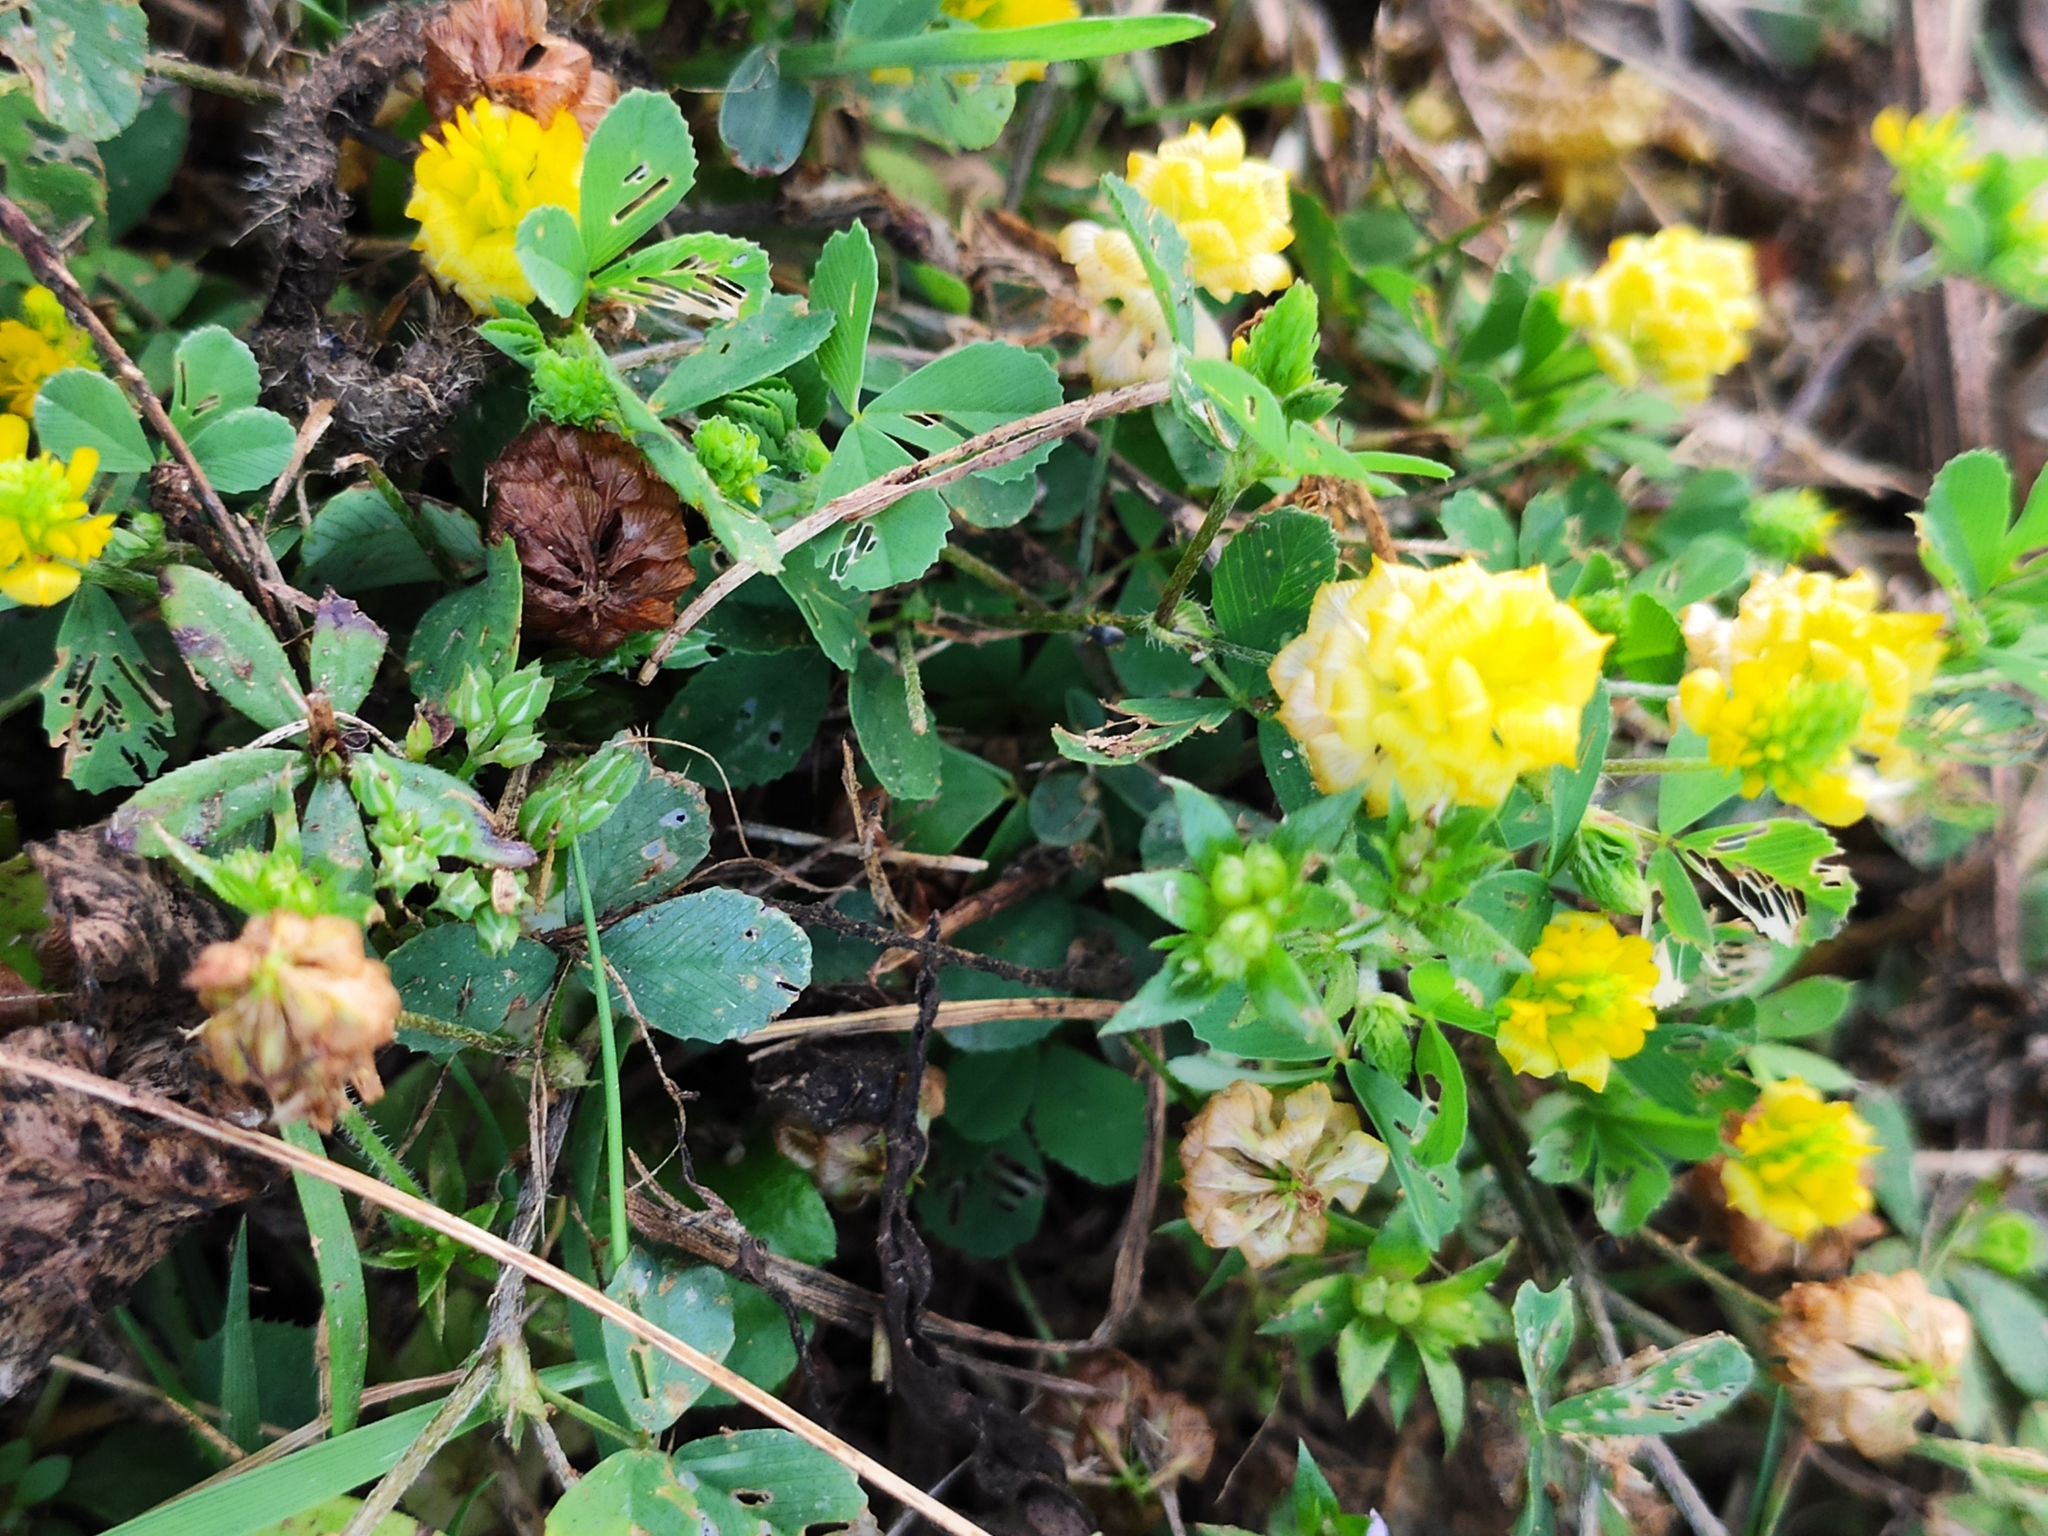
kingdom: Plantae
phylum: Tracheophyta
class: Magnoliopsida
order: Fabales
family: Fabaceae
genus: Trifolium
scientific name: Trifolium campestre
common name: Field clover
